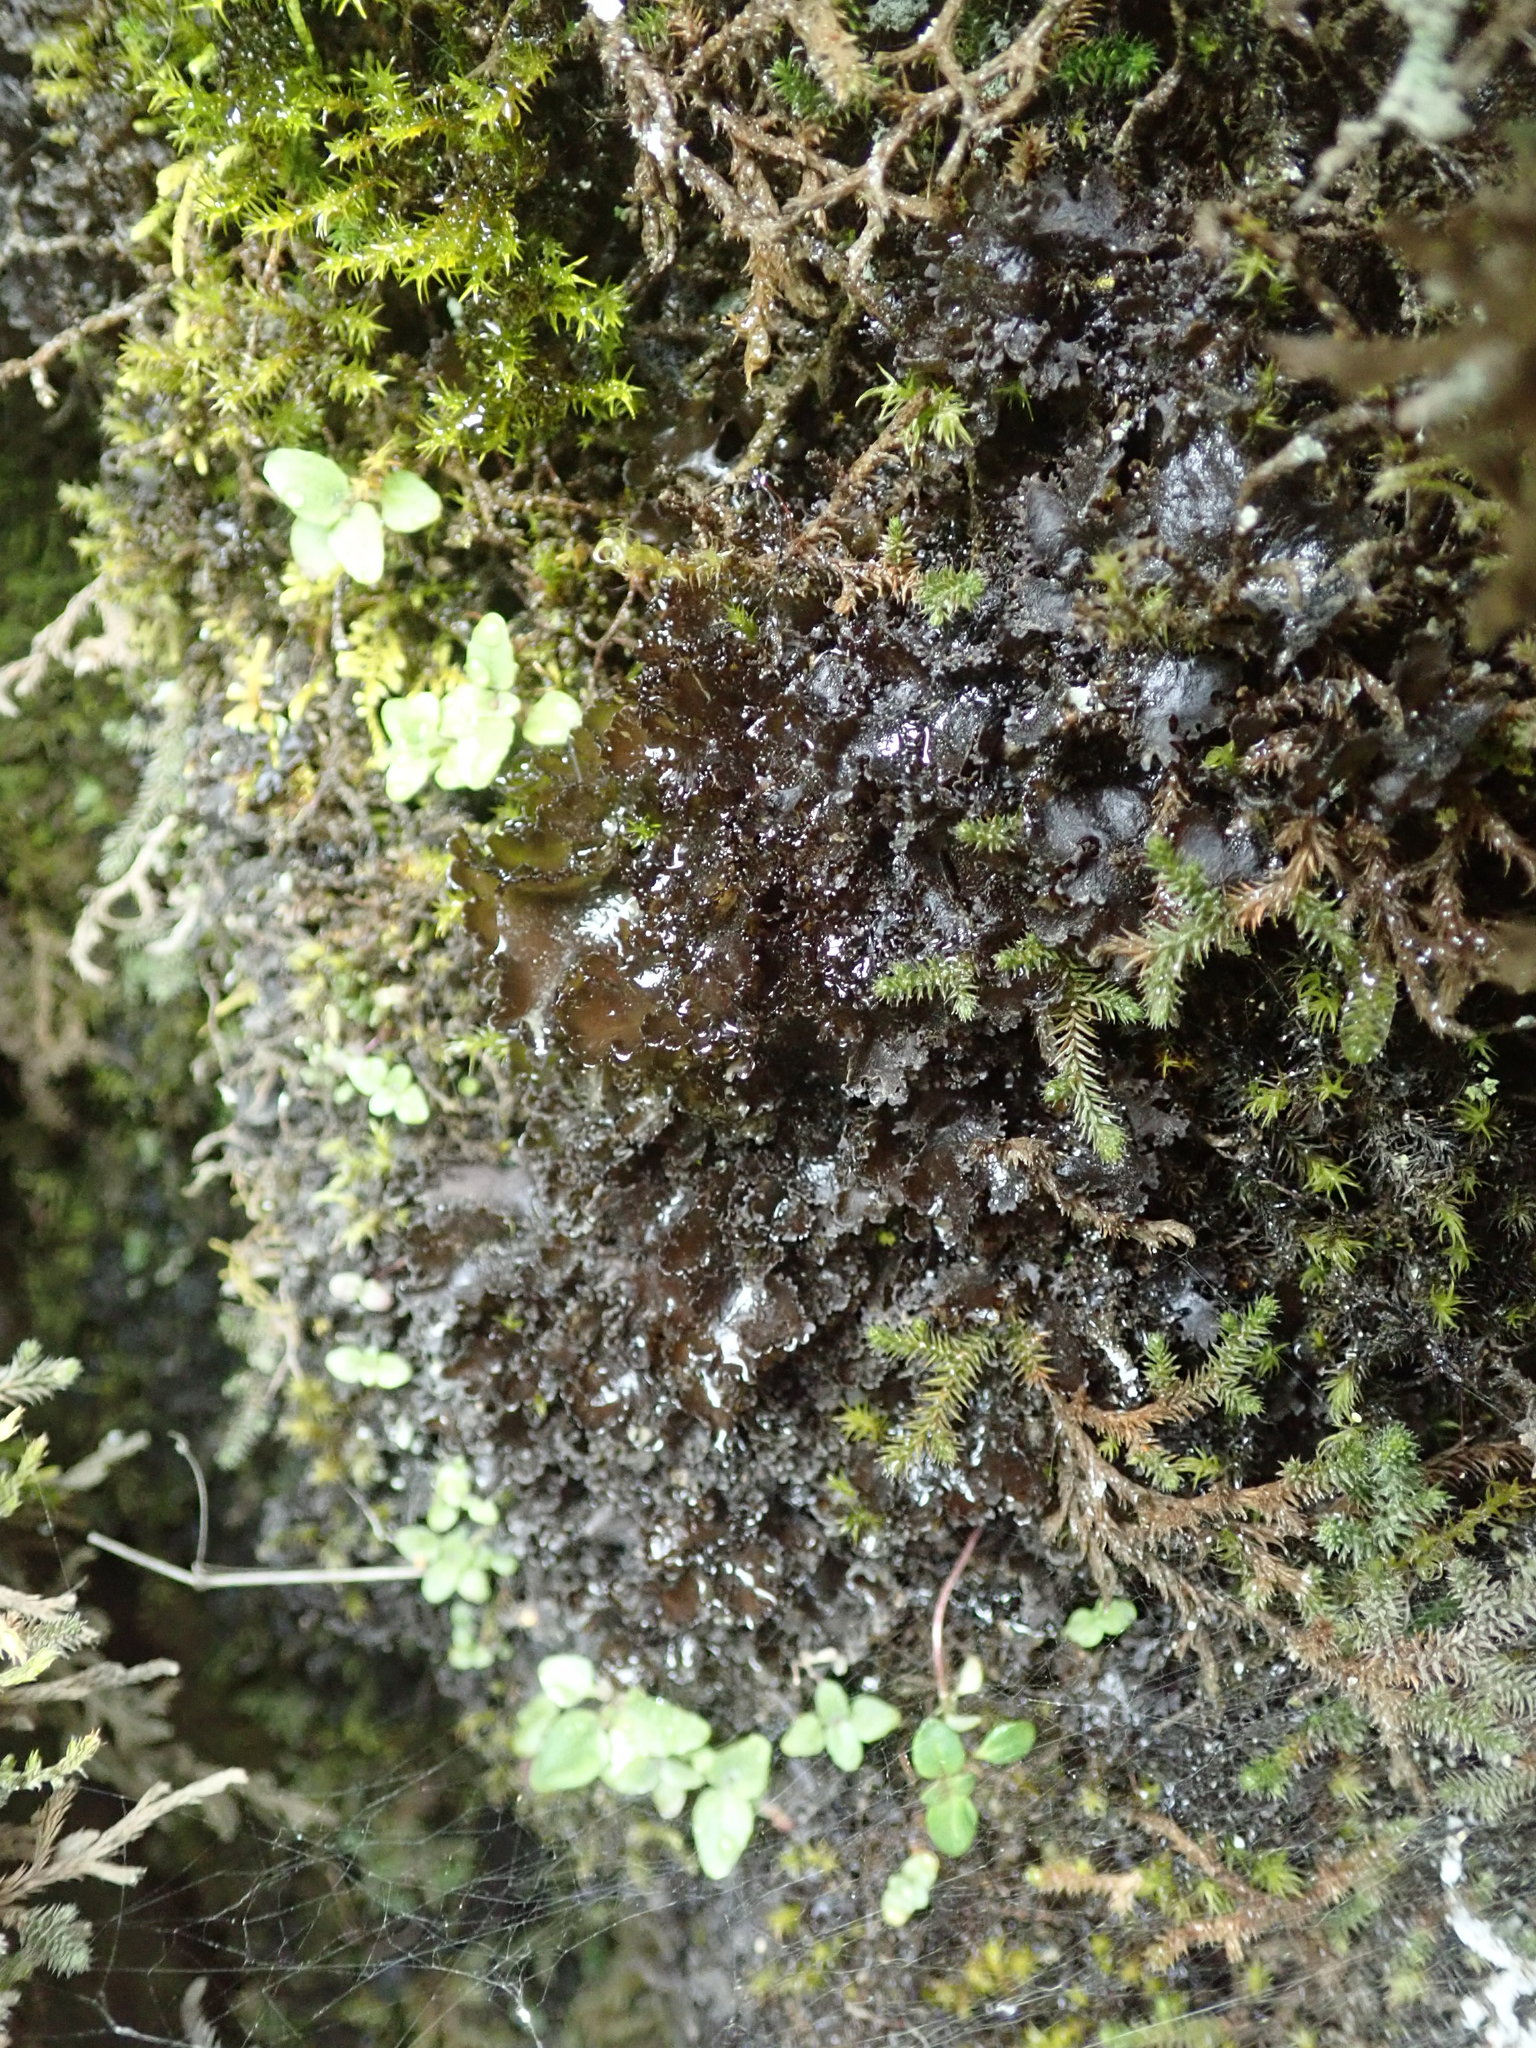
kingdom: Fungi
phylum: Ascomycota
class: Lecanoromycetes
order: Peltigerales
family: Collemataceae
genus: Scytinium
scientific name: Scytinium platynum
